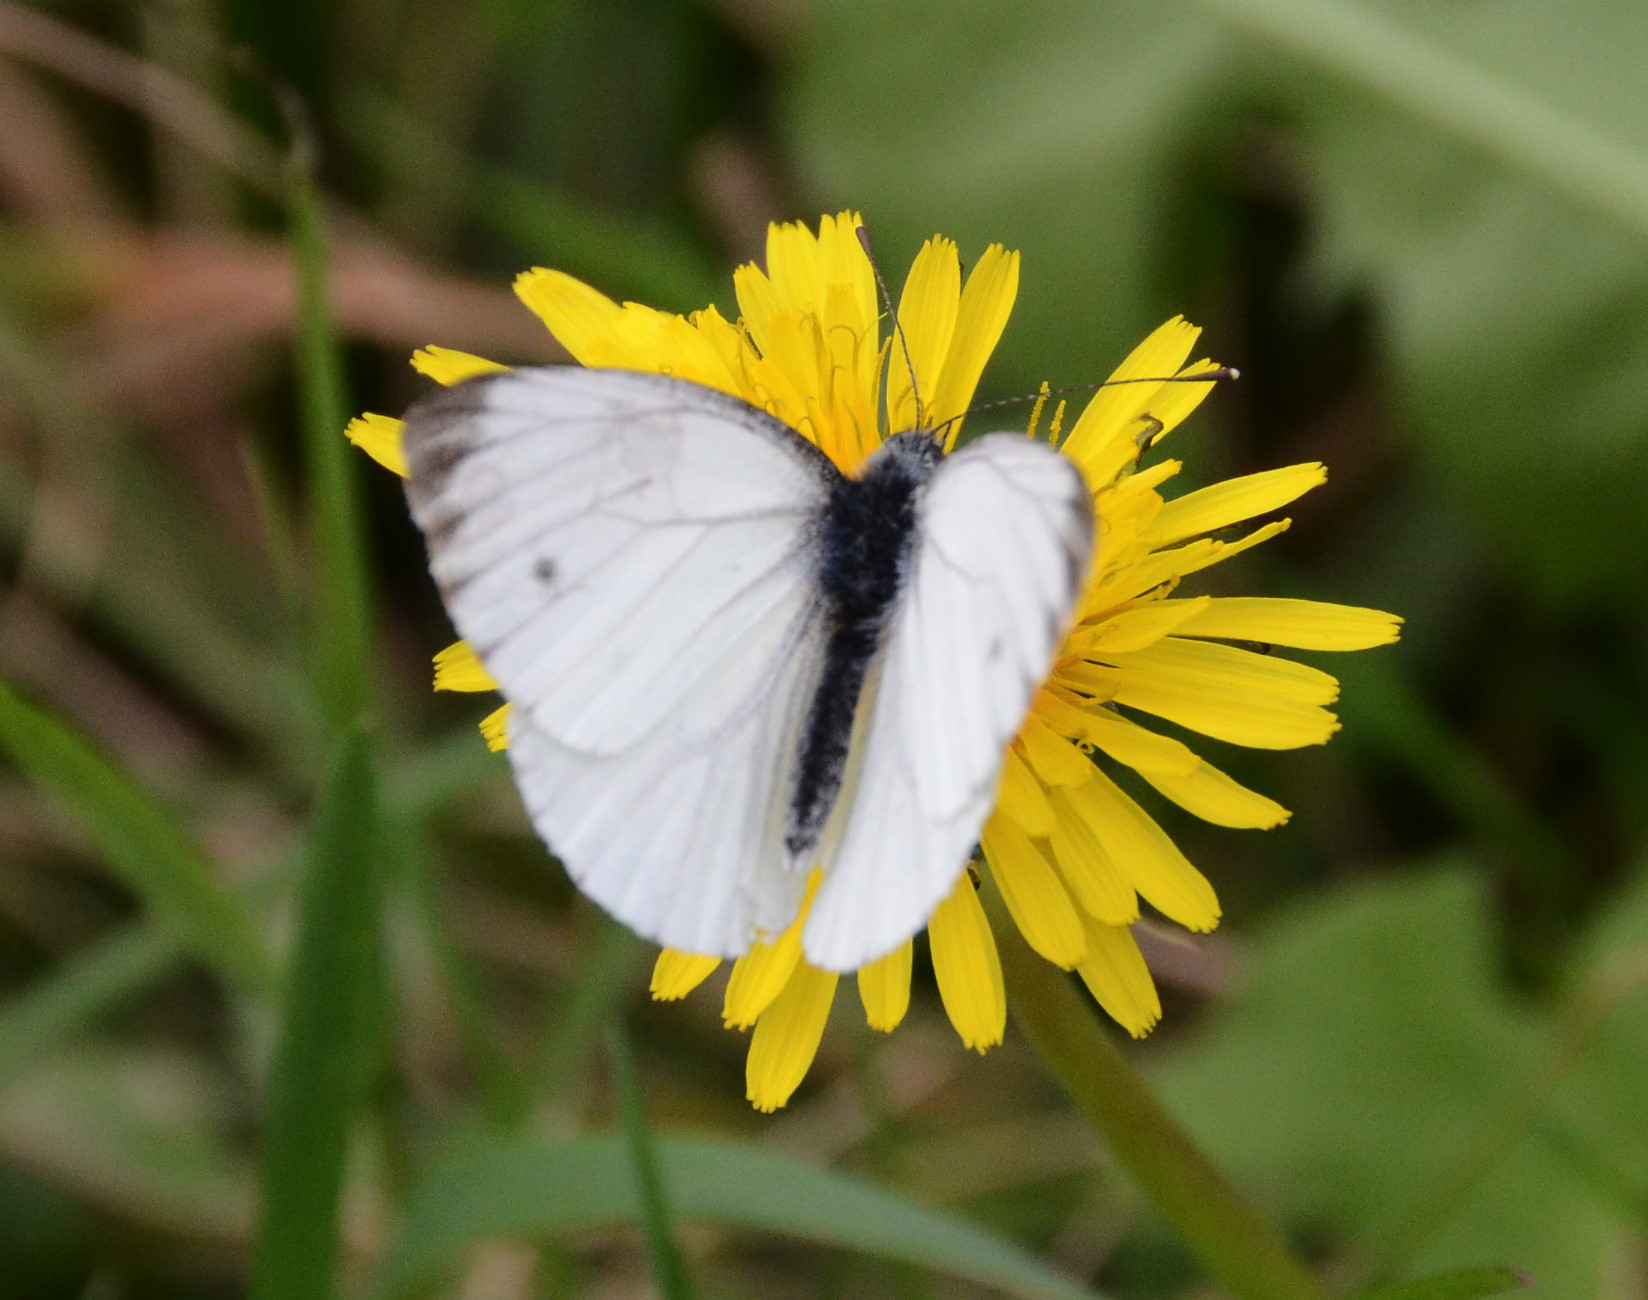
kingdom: Animalia
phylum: Arthropoda
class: Insecta
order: Lepidoptera
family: Pieridae
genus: Pieris
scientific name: Pieris napi
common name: Green-veined white
